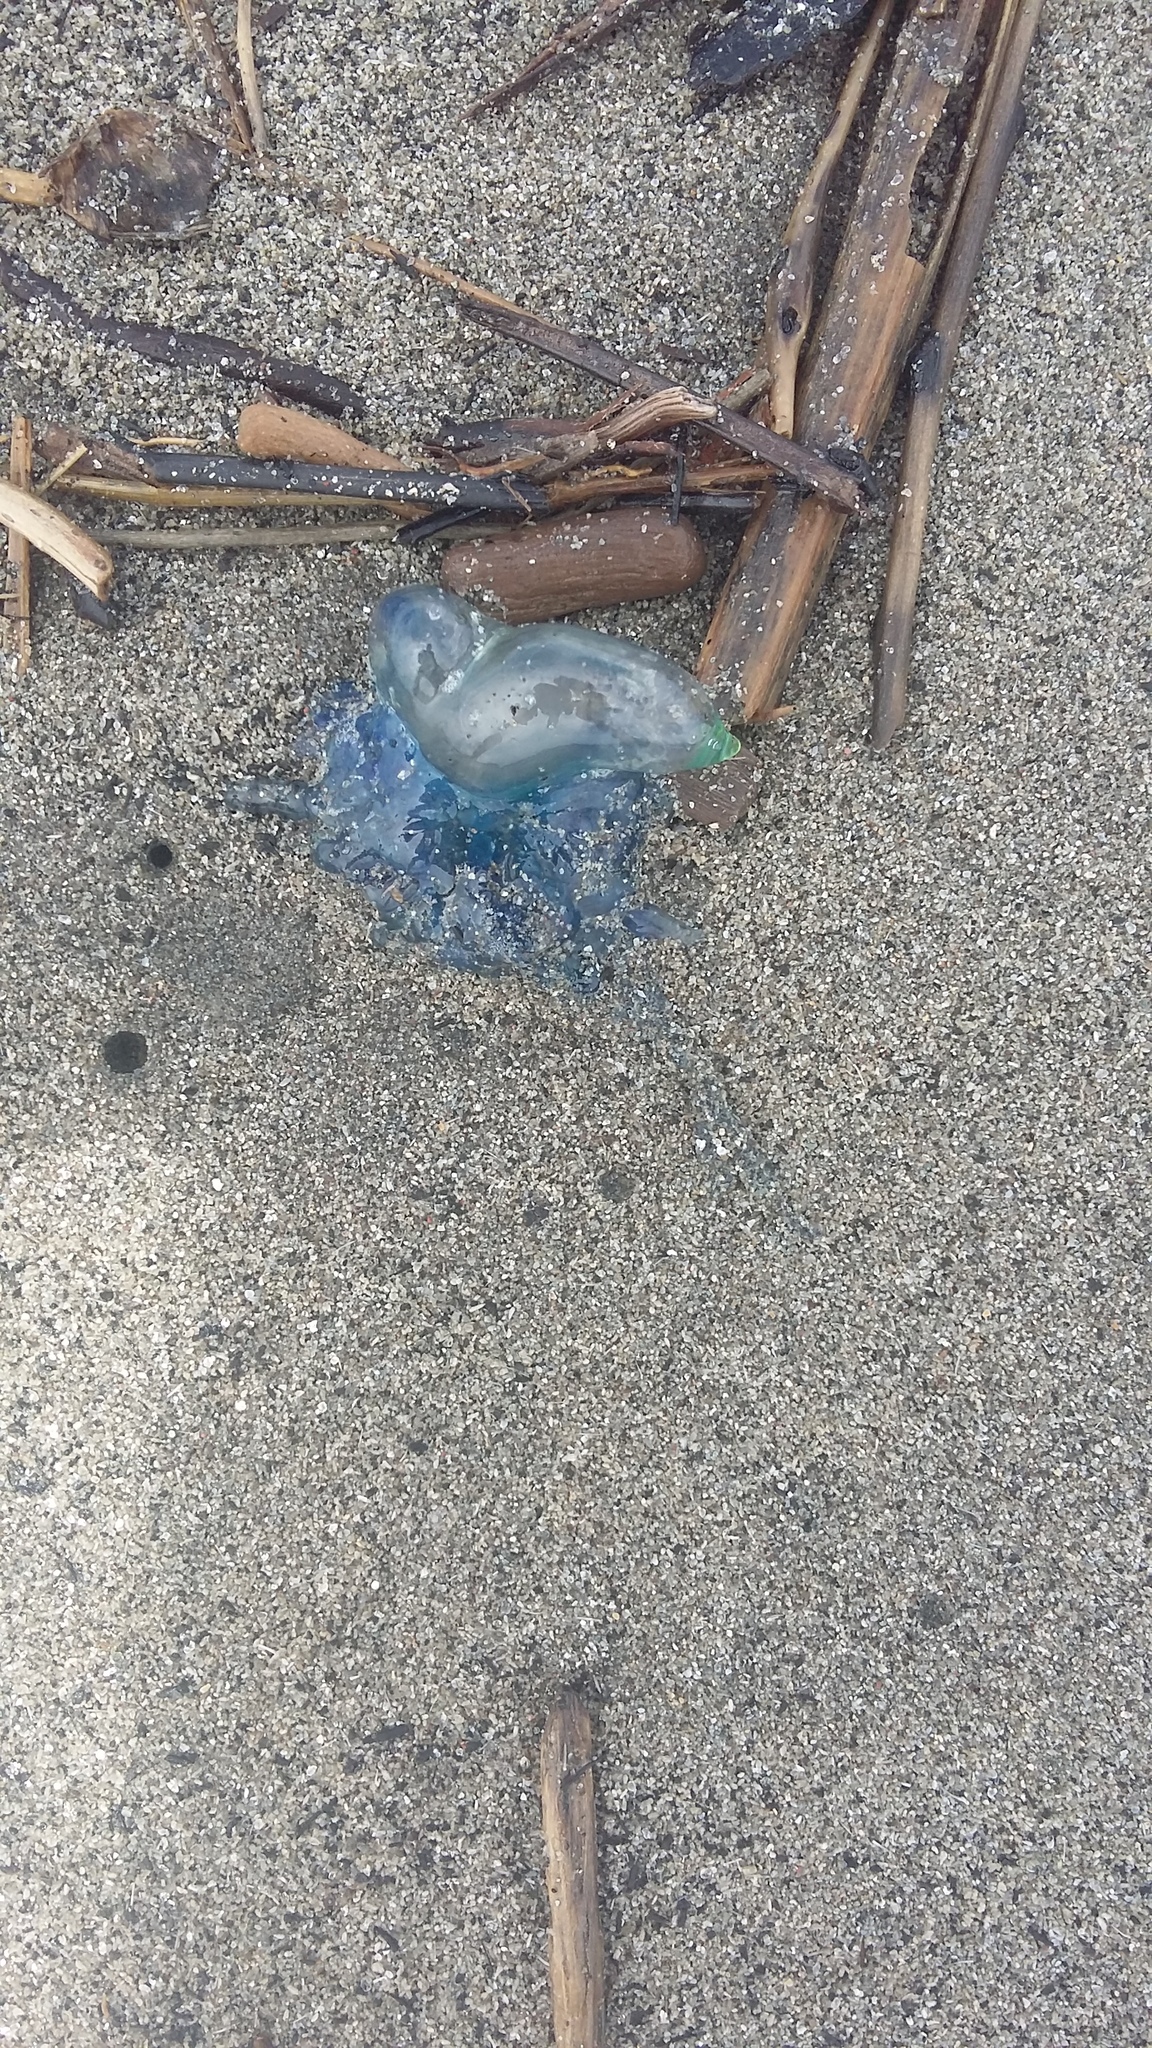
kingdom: Animalia
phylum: Cnidaria
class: Hydrozoa
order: Siphonophorae
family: Physaliidae
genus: Physalia
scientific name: Physalia physalis
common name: Portuguese man-of-war
